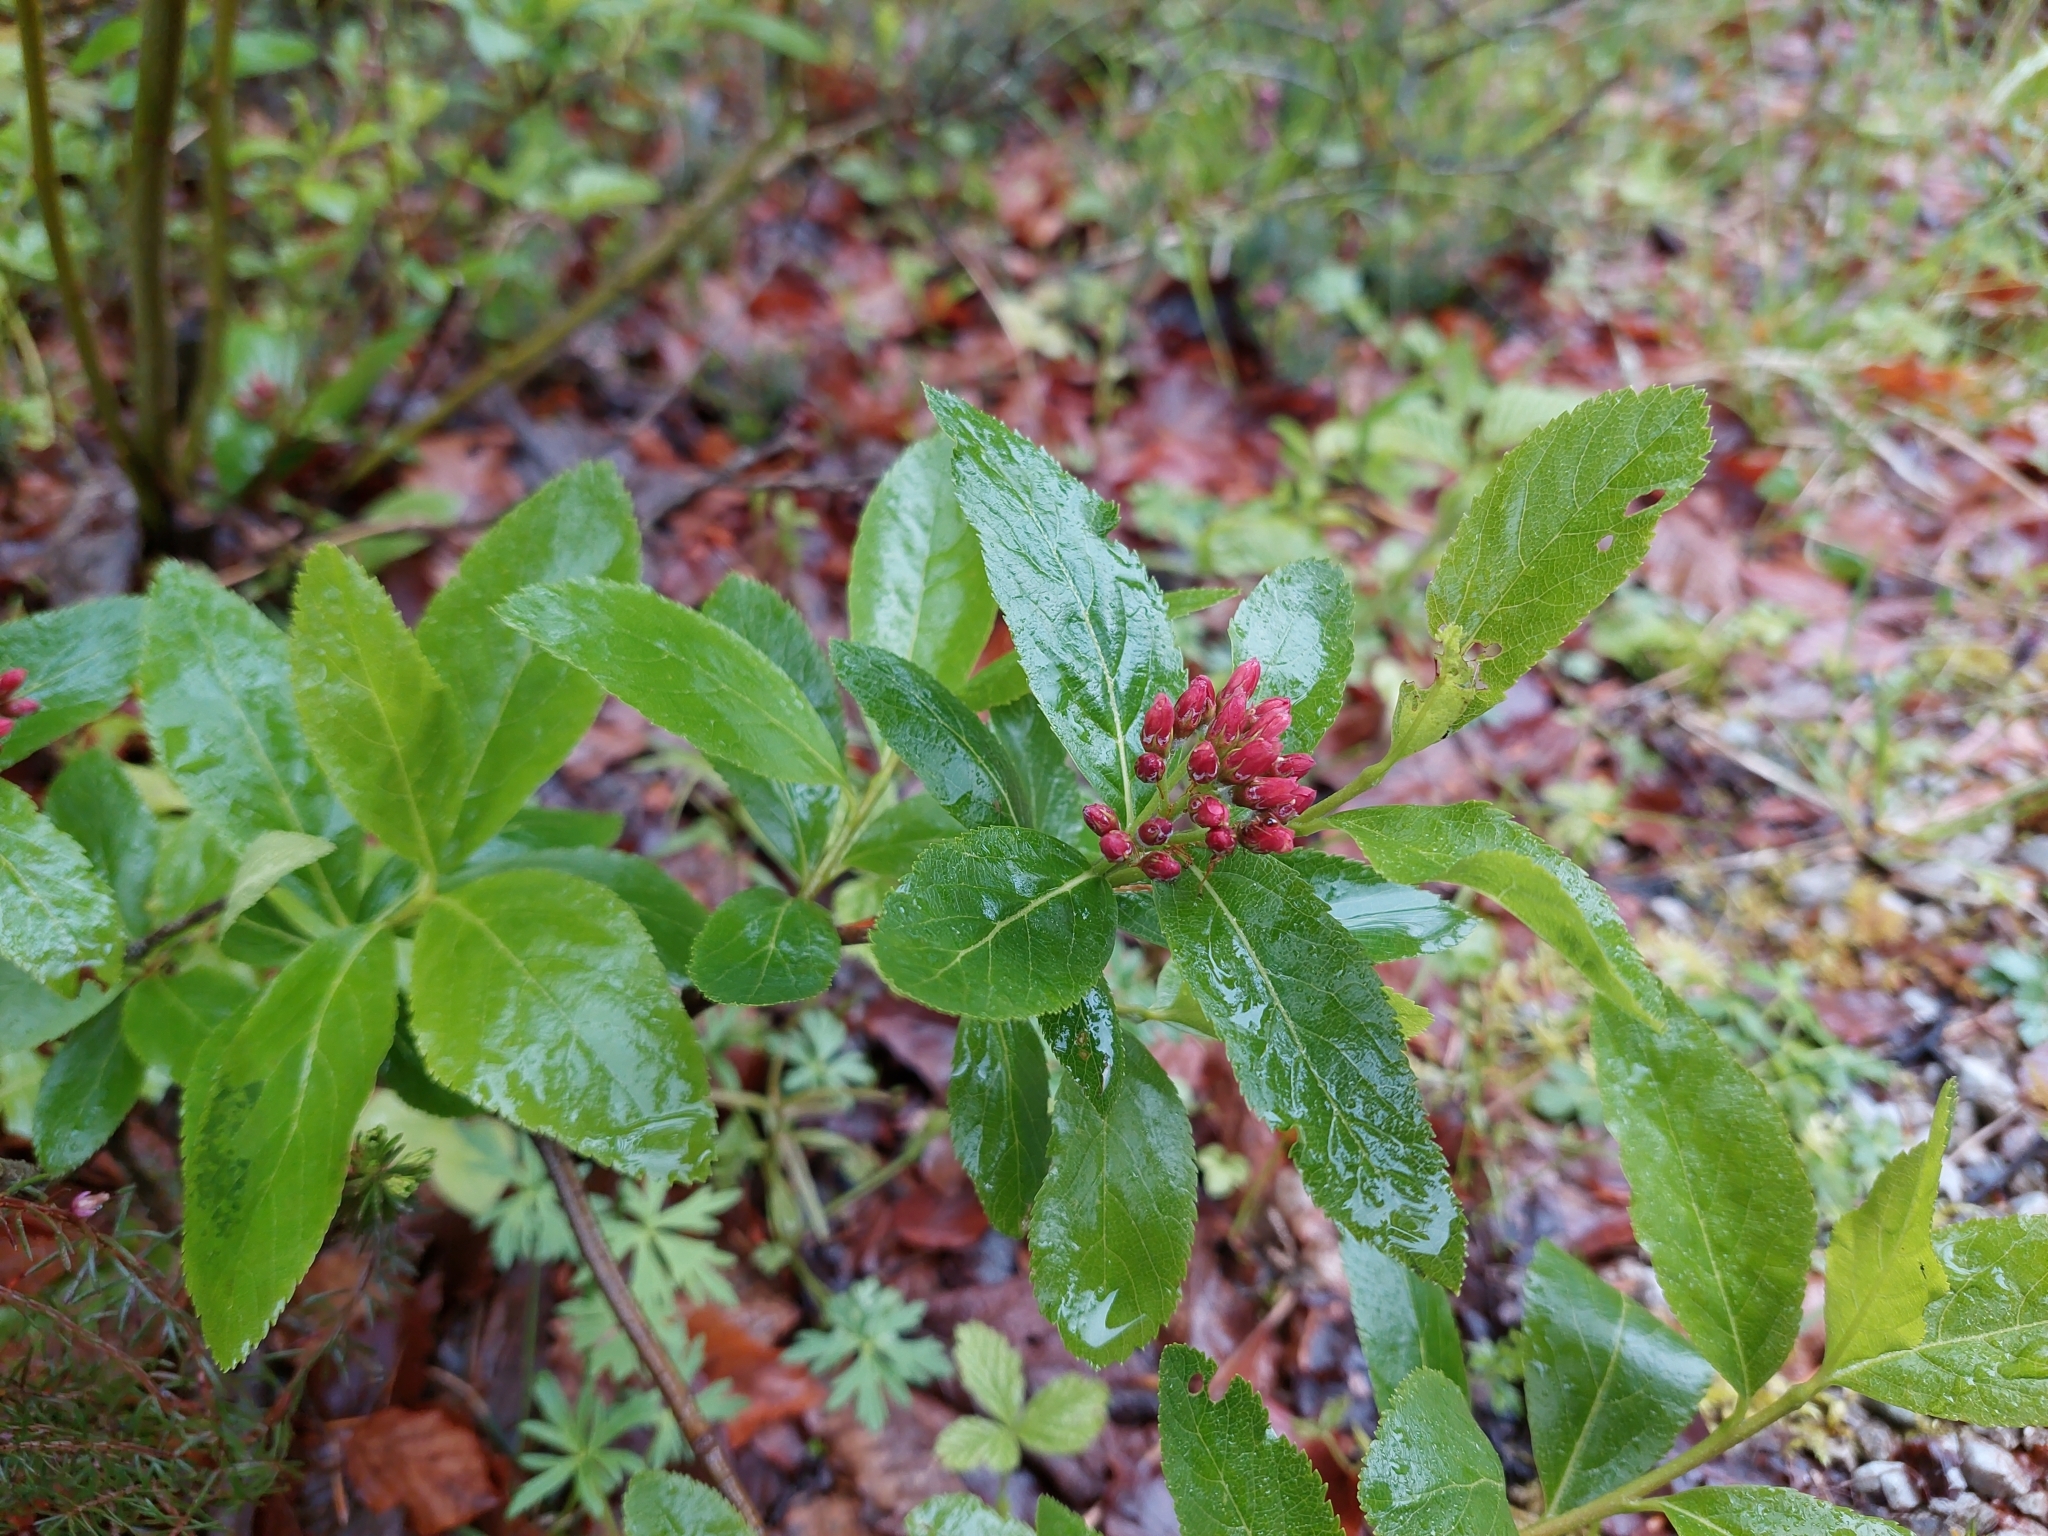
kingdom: Plantae
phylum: Tracheophyta
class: Magnoliopsida
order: Rosales
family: Rosaceae
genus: Chamaemespilus
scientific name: Chamaemespilus alpina
